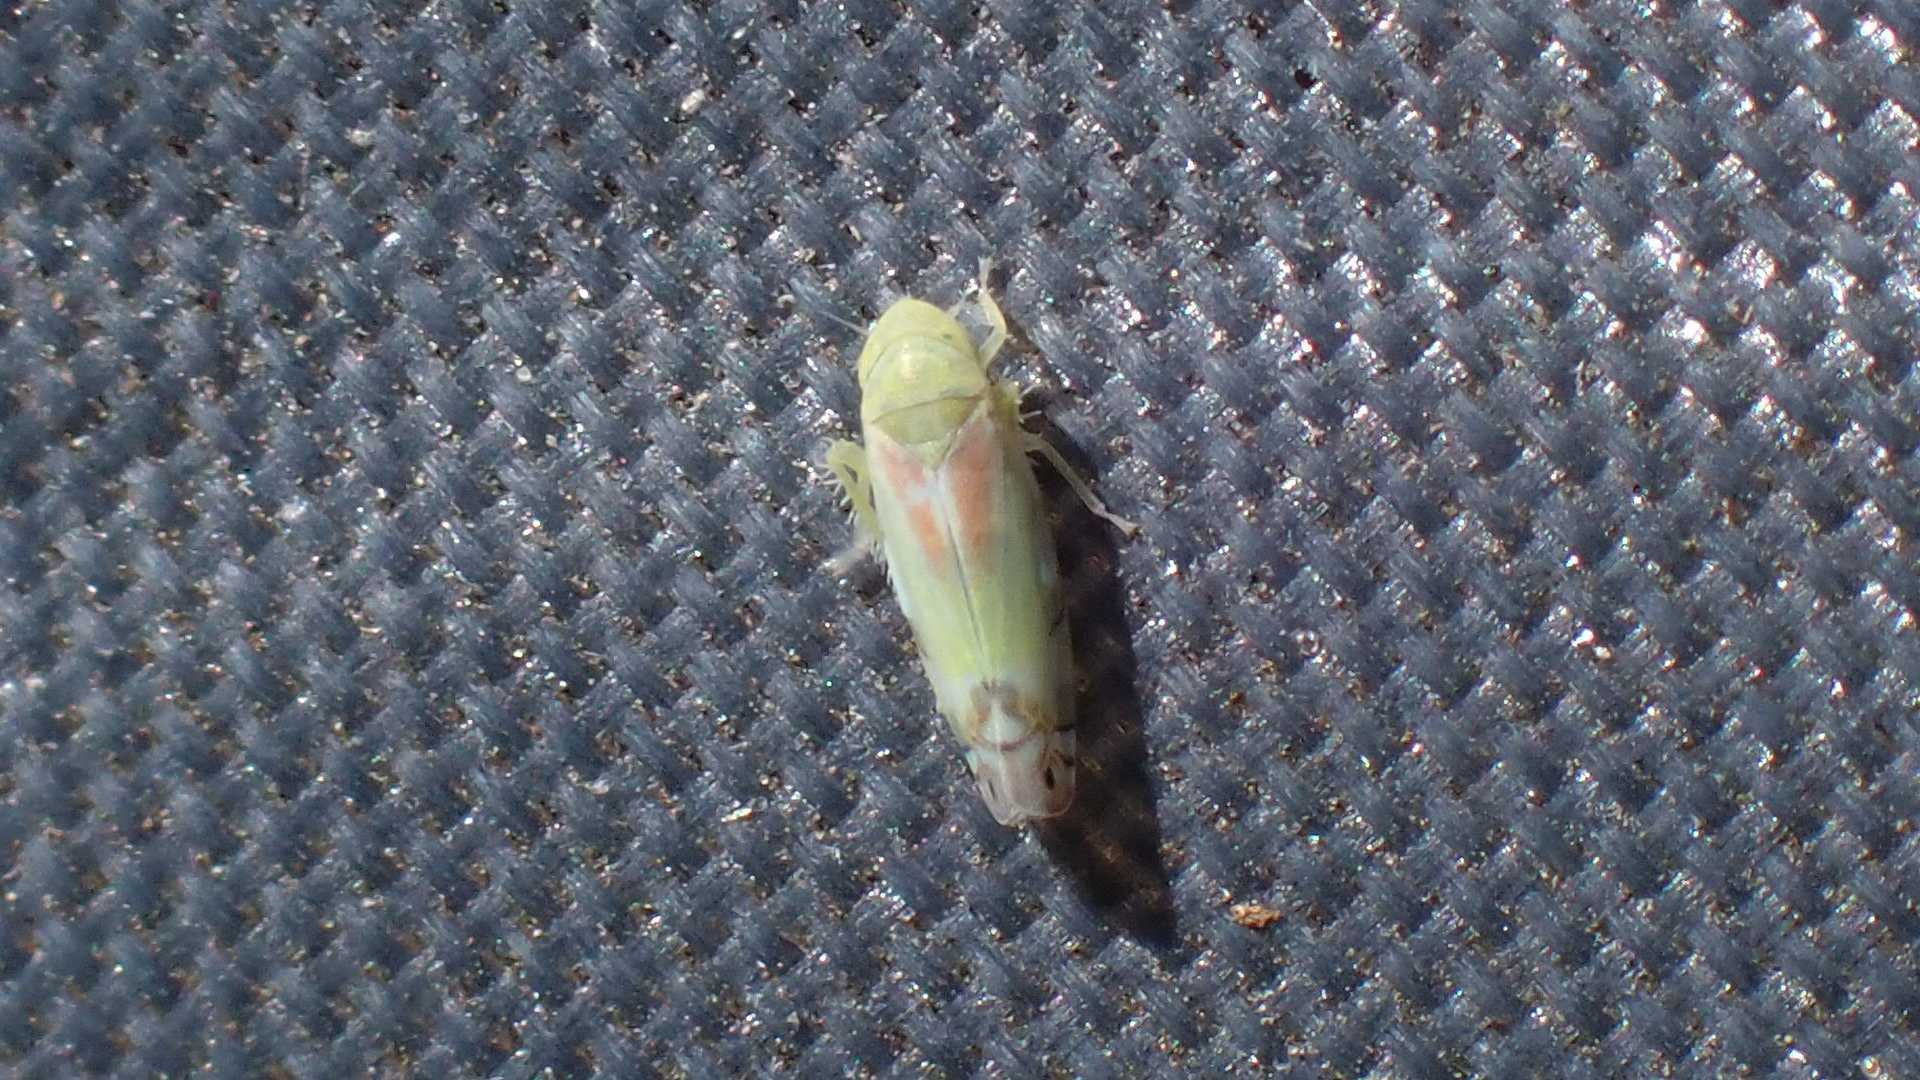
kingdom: Animalia
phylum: Arthropoda
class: Insecta
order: Hemiptera
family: Cicadellidae
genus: Zyginella
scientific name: Zyginella pulchra
